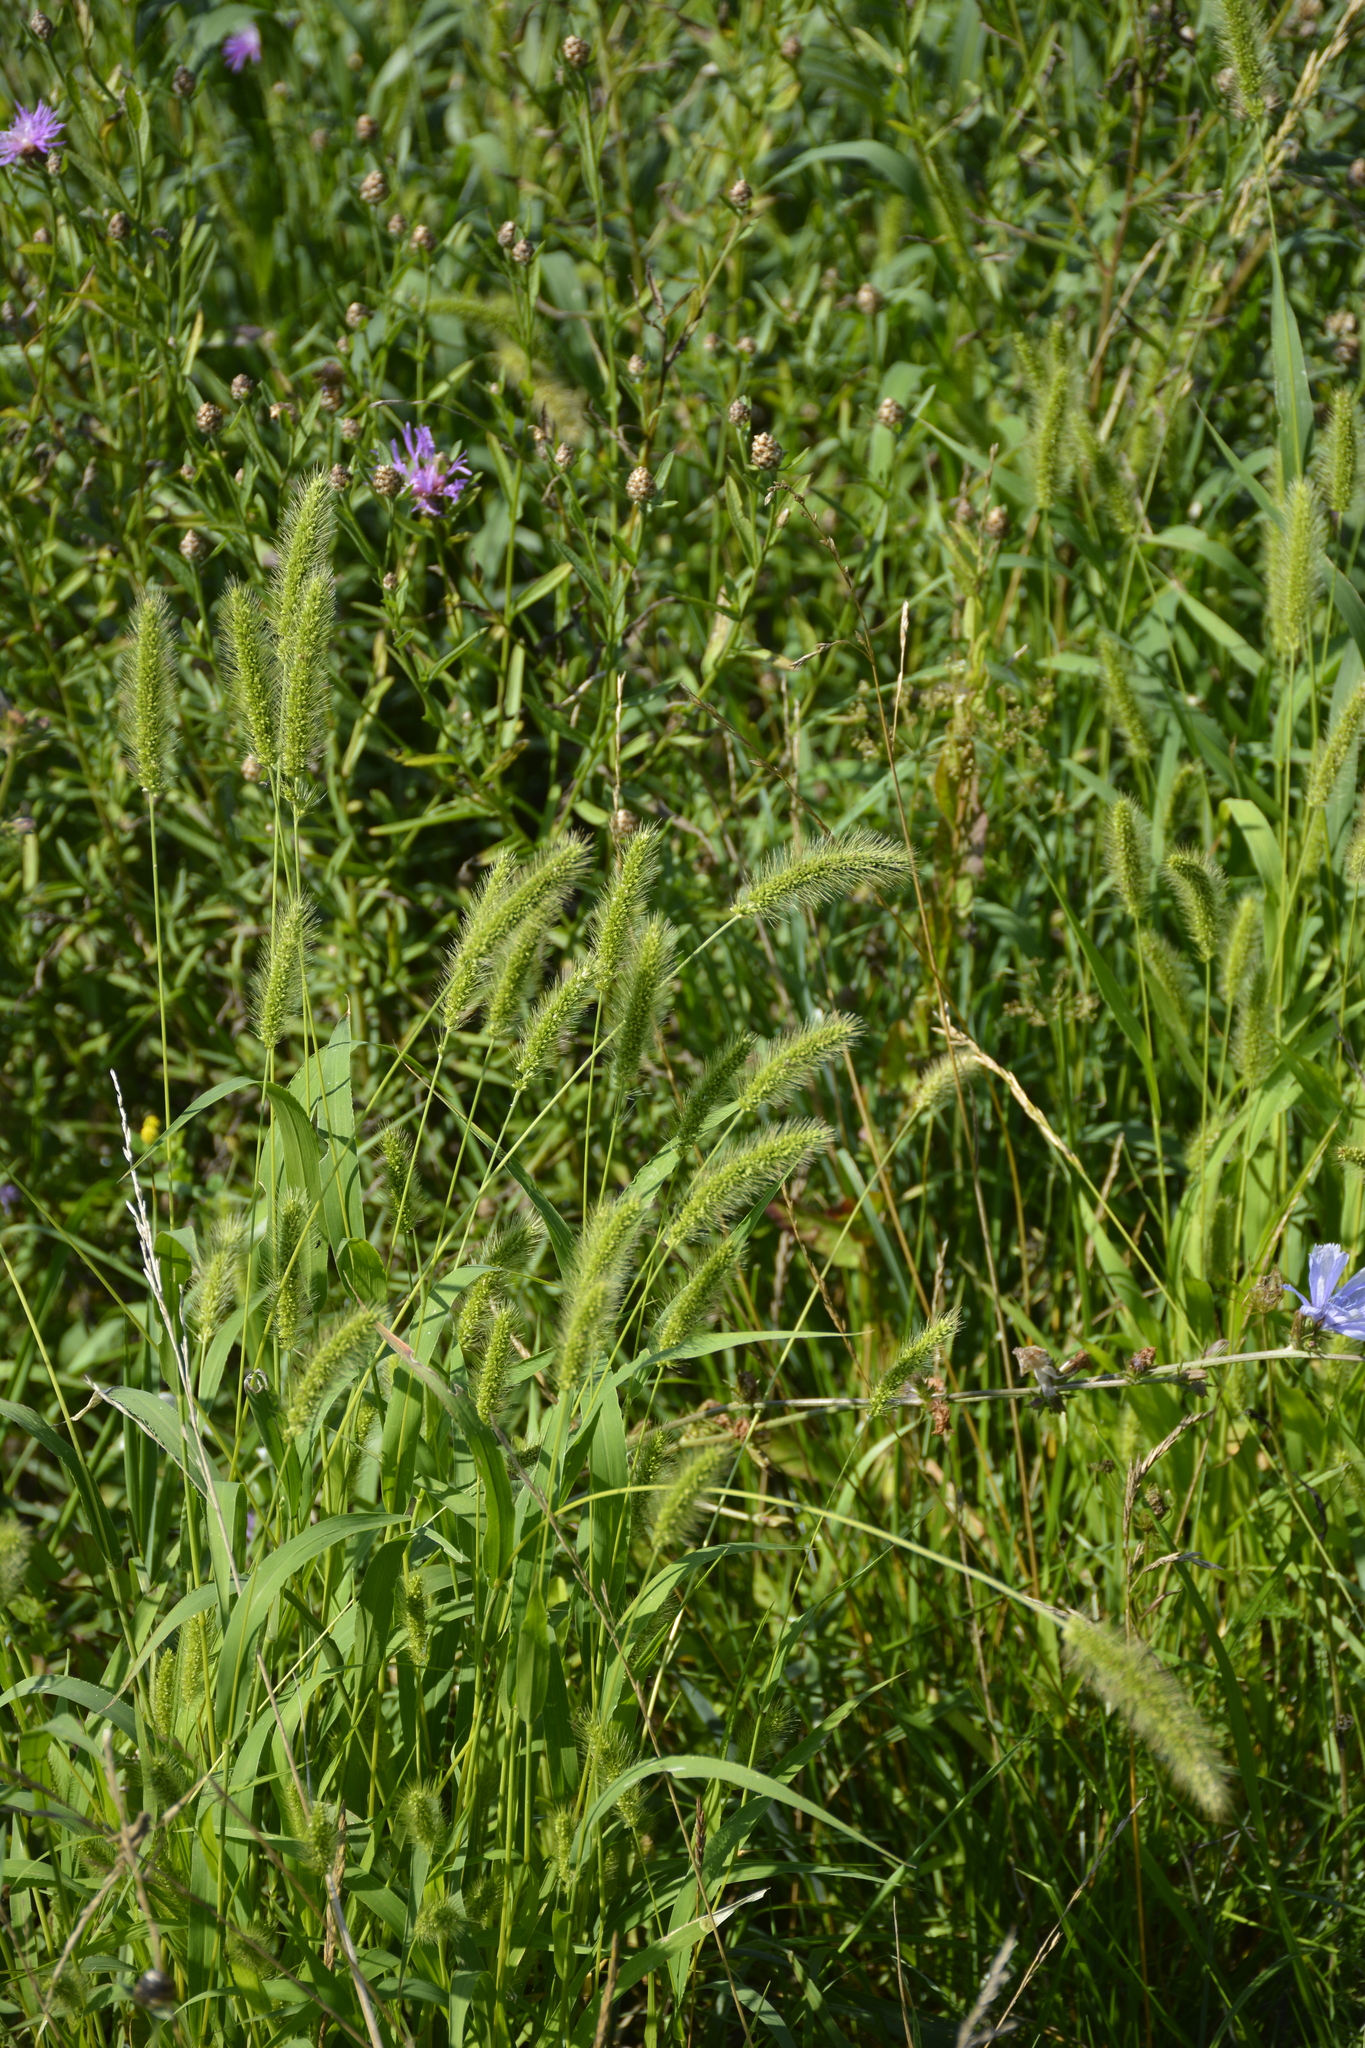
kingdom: Plantae
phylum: Tracheophyta
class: Liliopsida
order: Poales
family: Poaceae
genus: Setaria
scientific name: Setaria viridis
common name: Green bristlegrass
